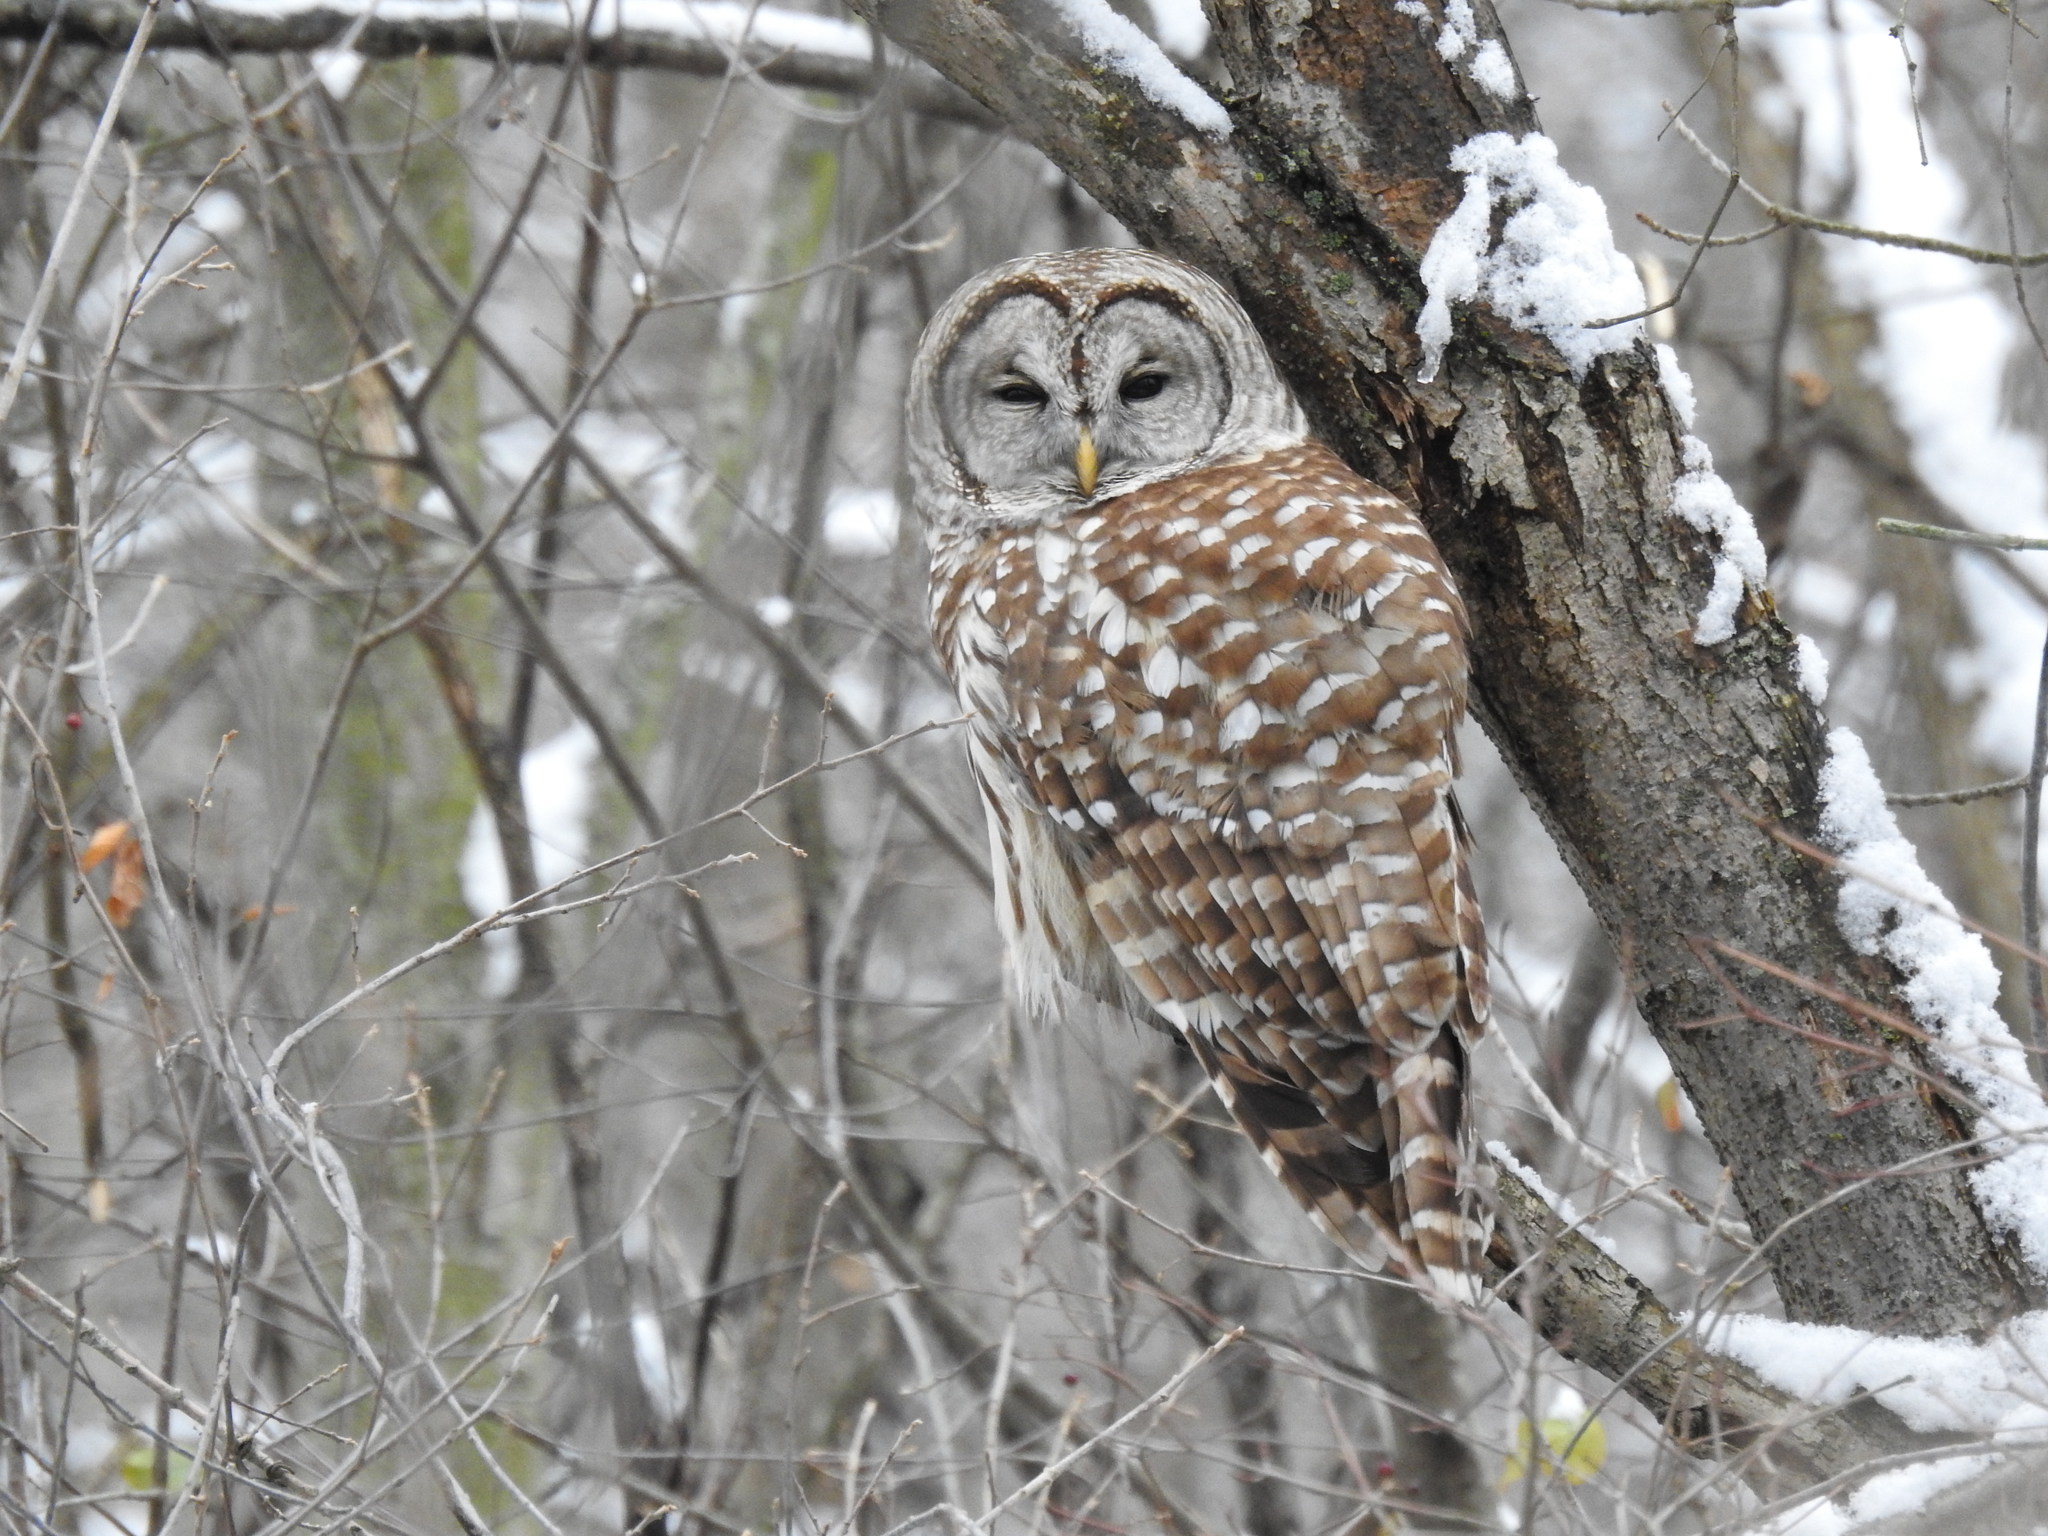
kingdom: Animalia
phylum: Chordata
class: Aves
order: Strigiformes
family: Strigidae
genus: Strix
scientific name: Strix varia
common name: Barred owl
